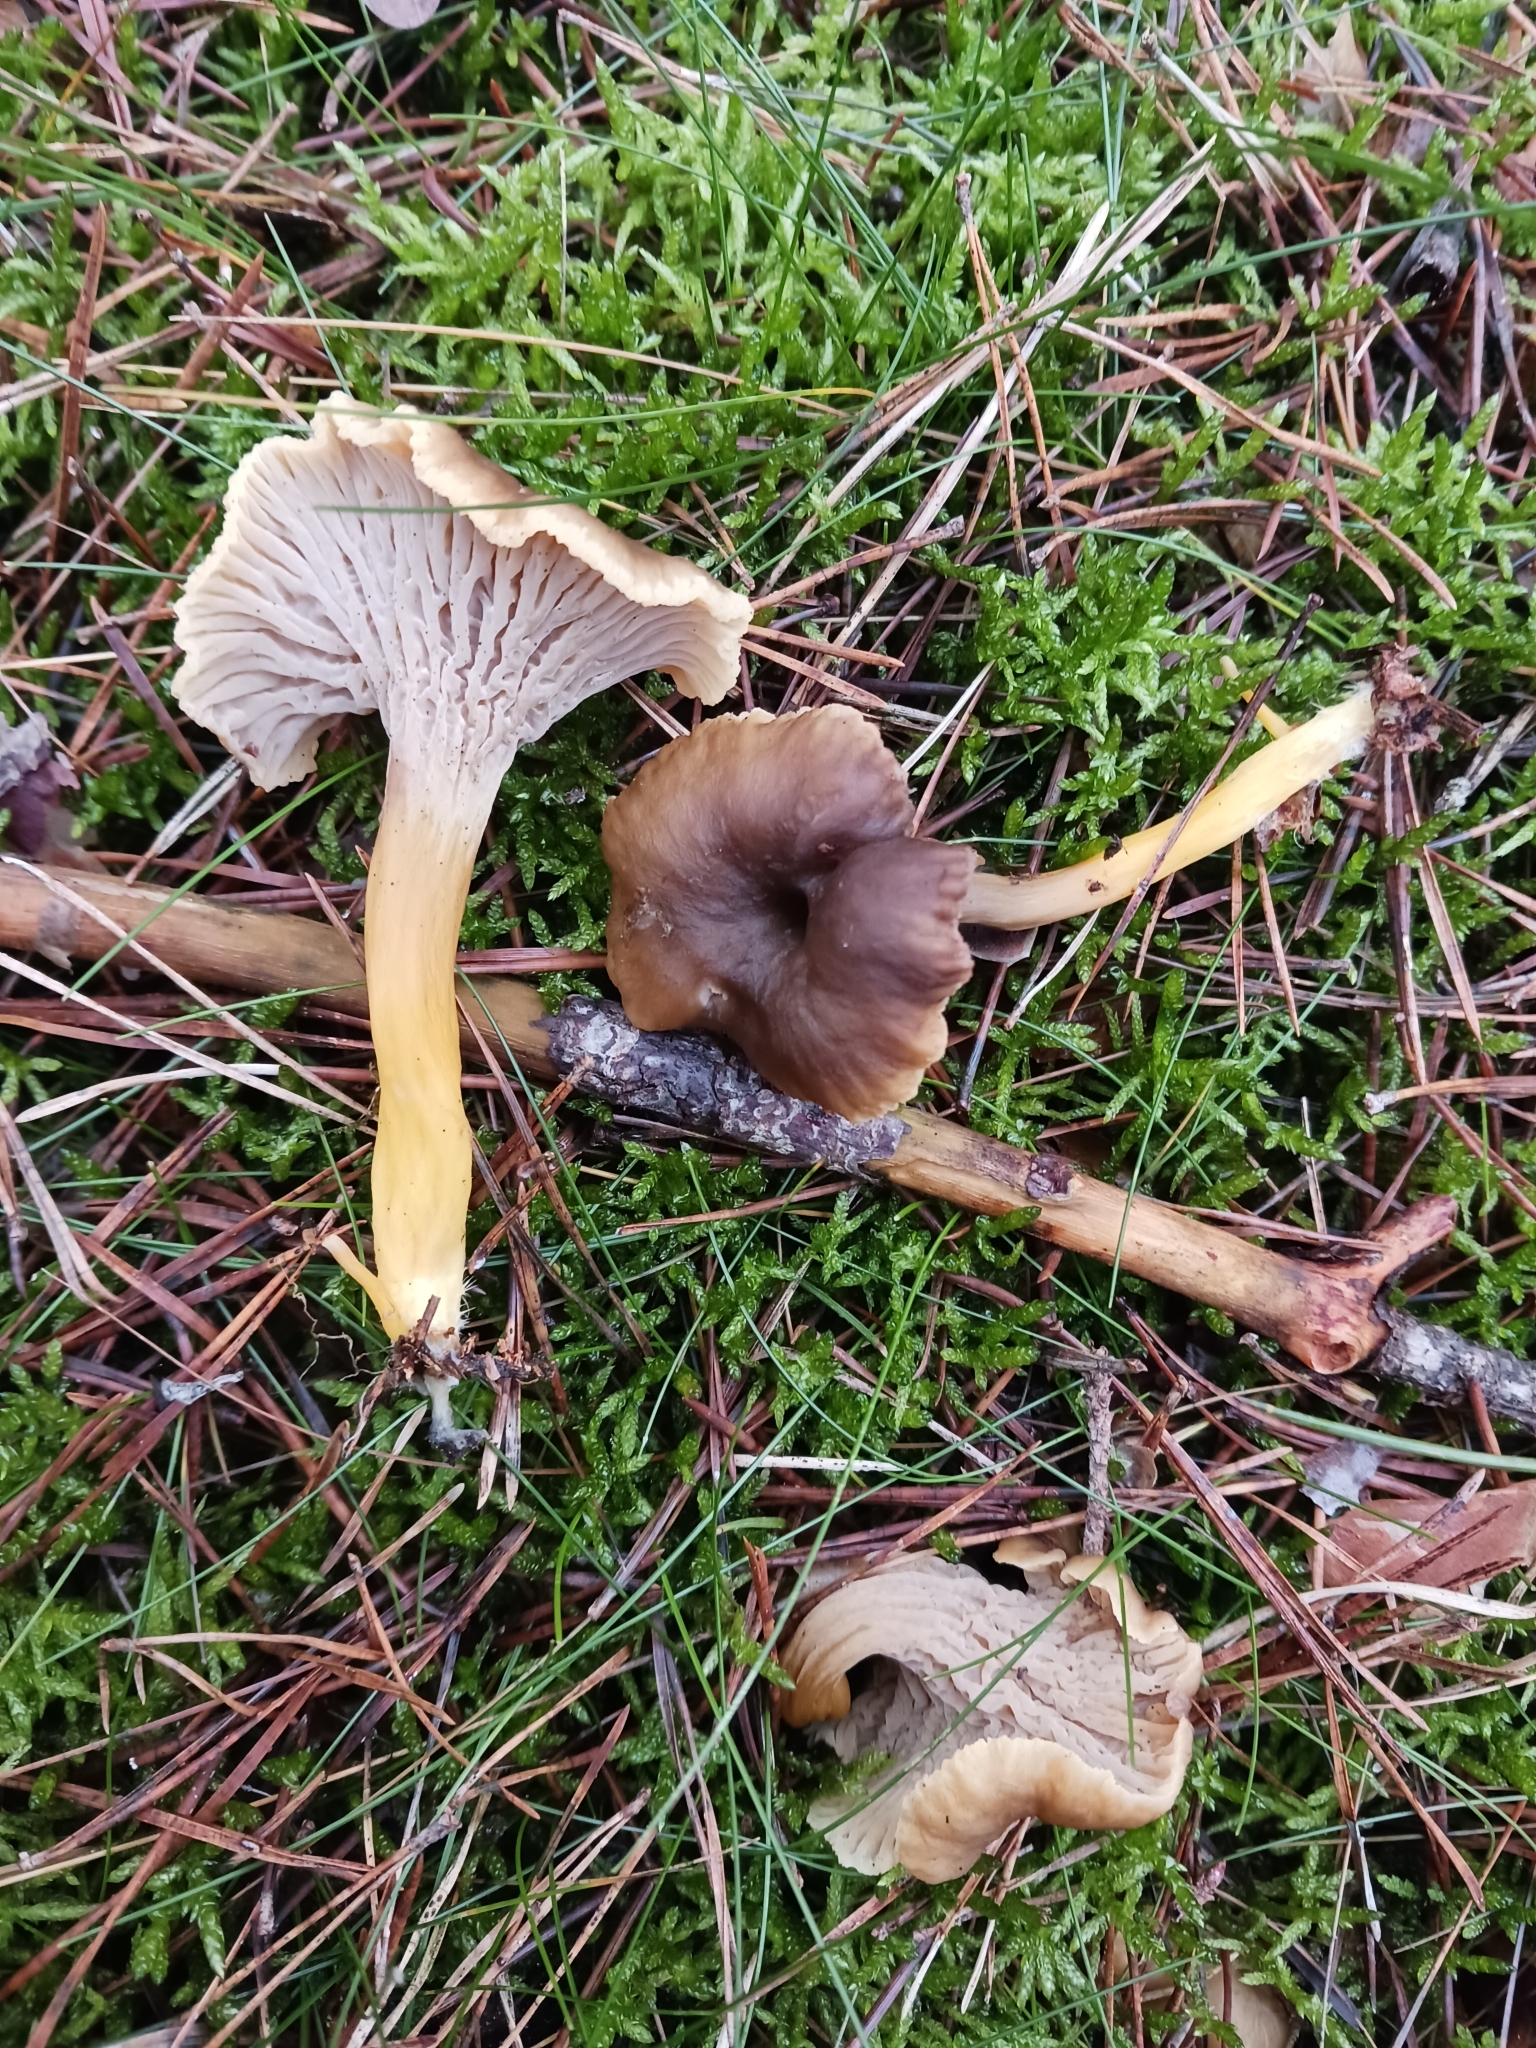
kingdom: Fungi
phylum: Basidiomycota
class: Agaricomycetes
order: Cantharellales
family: Hydnaceae
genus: Craterellus
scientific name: Craterellus tubaeformis
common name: Yellowfoot
